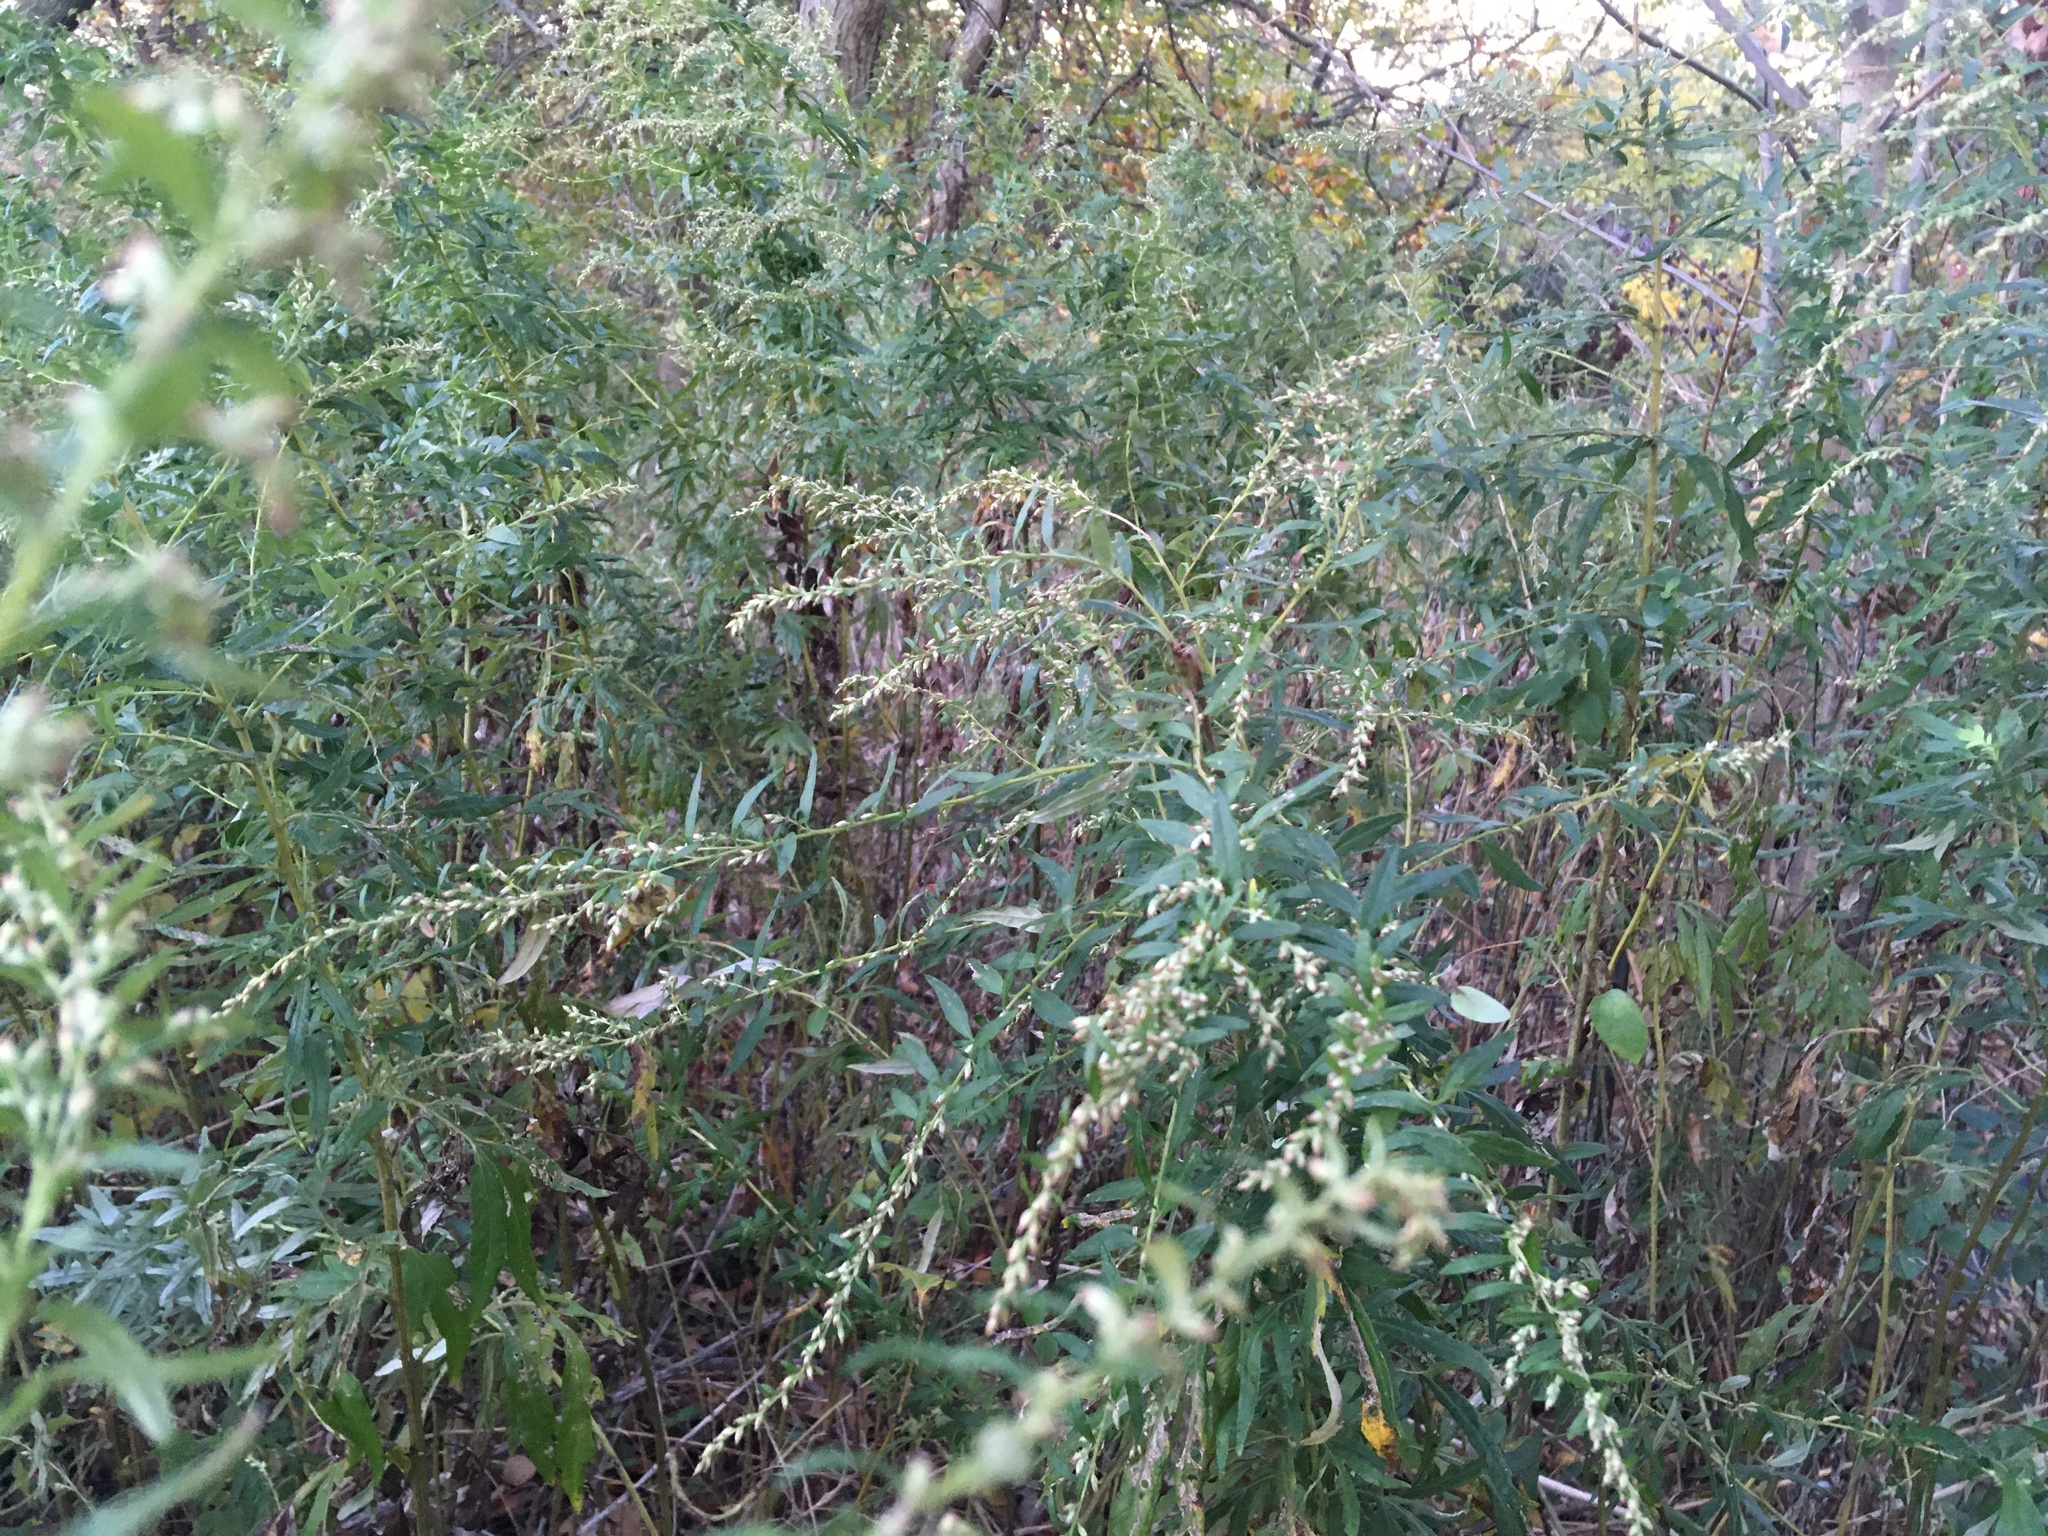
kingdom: Plantae
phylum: Tracheophyta
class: Magnoliopsida
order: Asterales
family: Asteraceae
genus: Artemisia
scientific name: Artemisia vulgaris
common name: Mugwort
